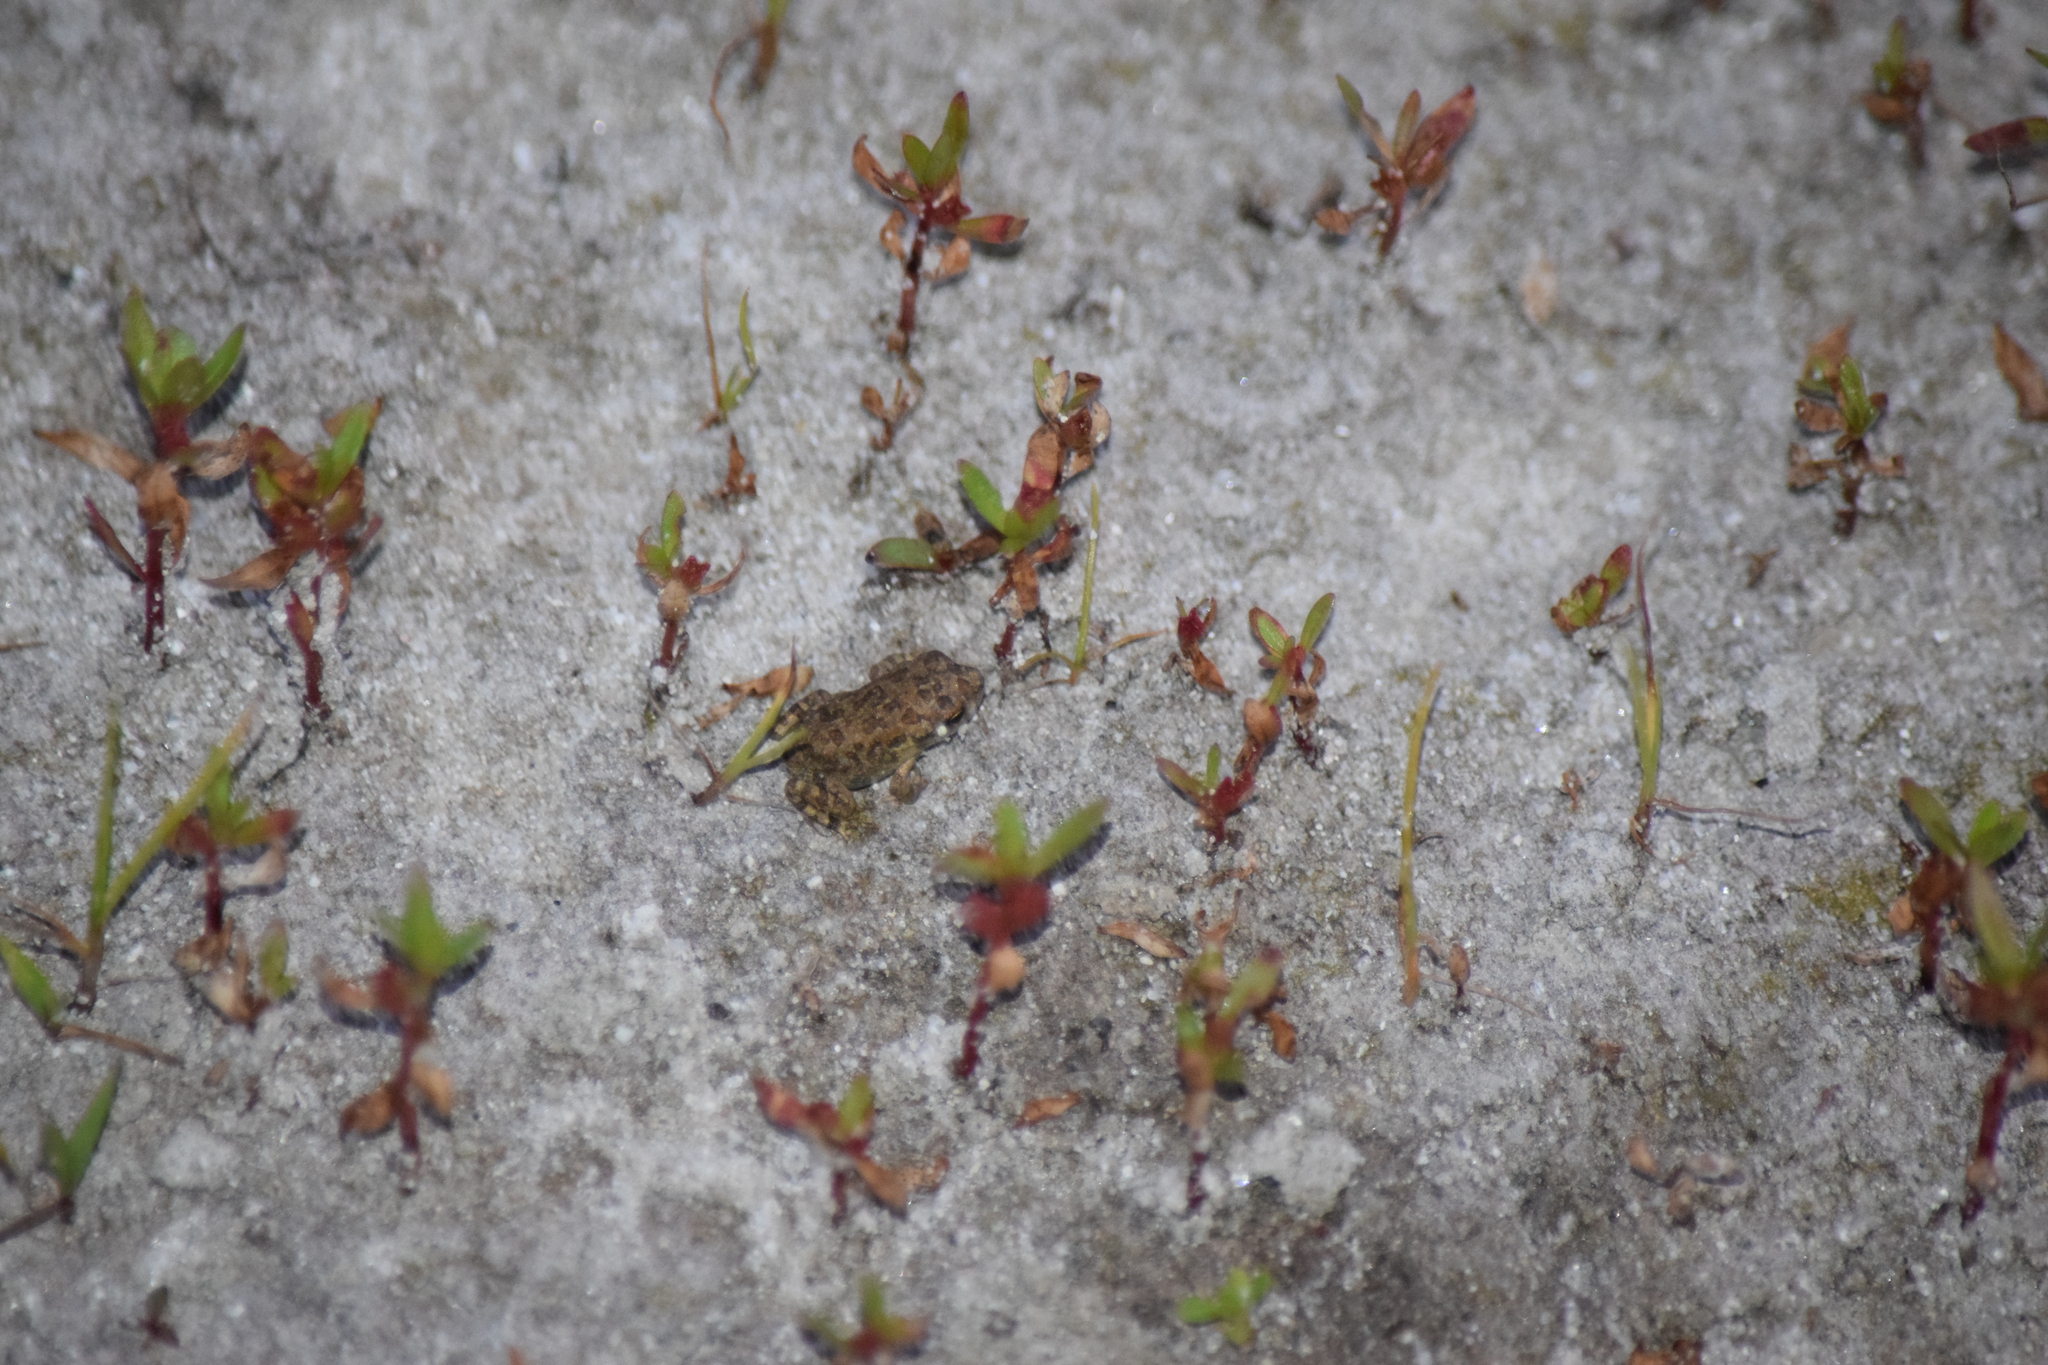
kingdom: Animalia
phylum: Chordata
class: Amphibia
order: Anura
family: Bufonidae
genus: Anaxyrus
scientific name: Anaxyrus fowleri
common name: Fowler's toad
